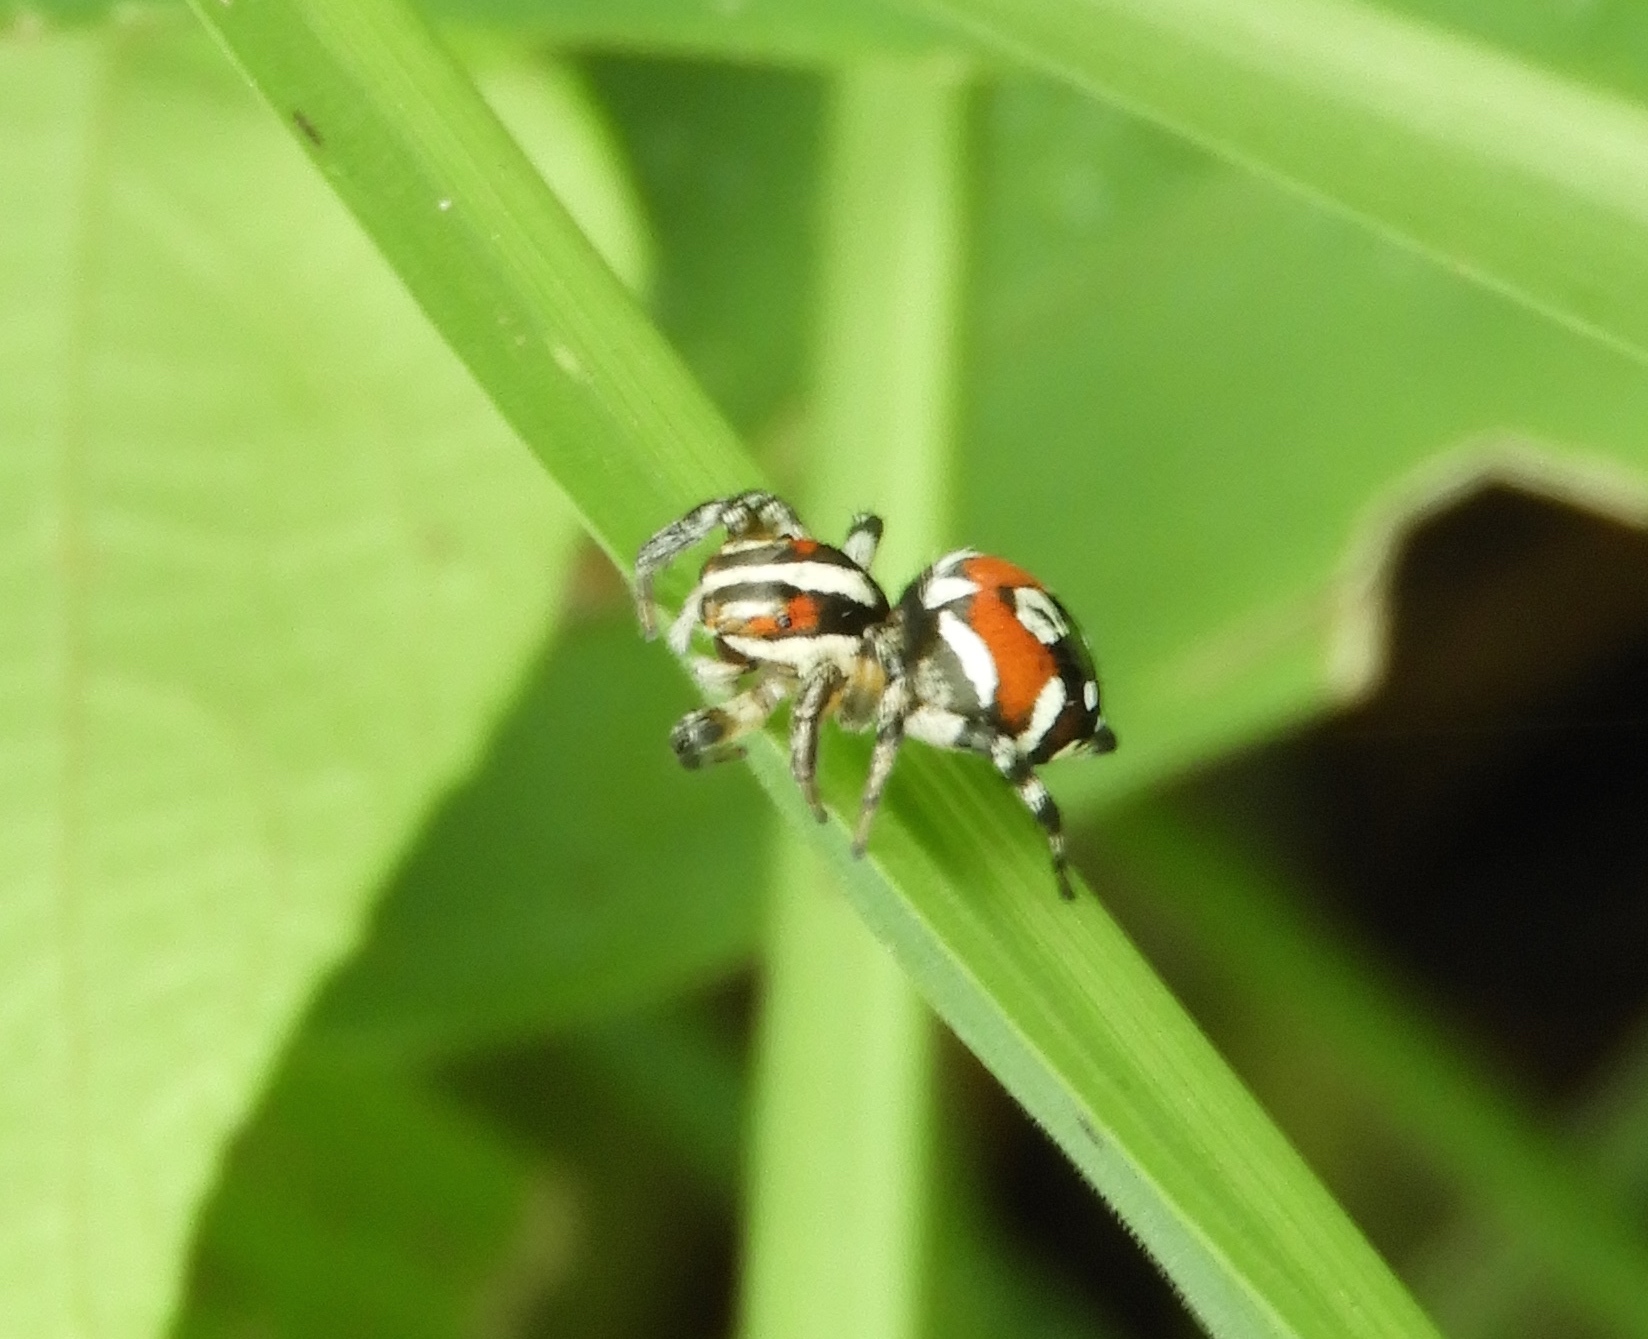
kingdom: Animalia
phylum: Arthropoda
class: Arachnida
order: Araneae
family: Salticidae
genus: Nycerella
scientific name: Nycerella delecta
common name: Jumping spiders
